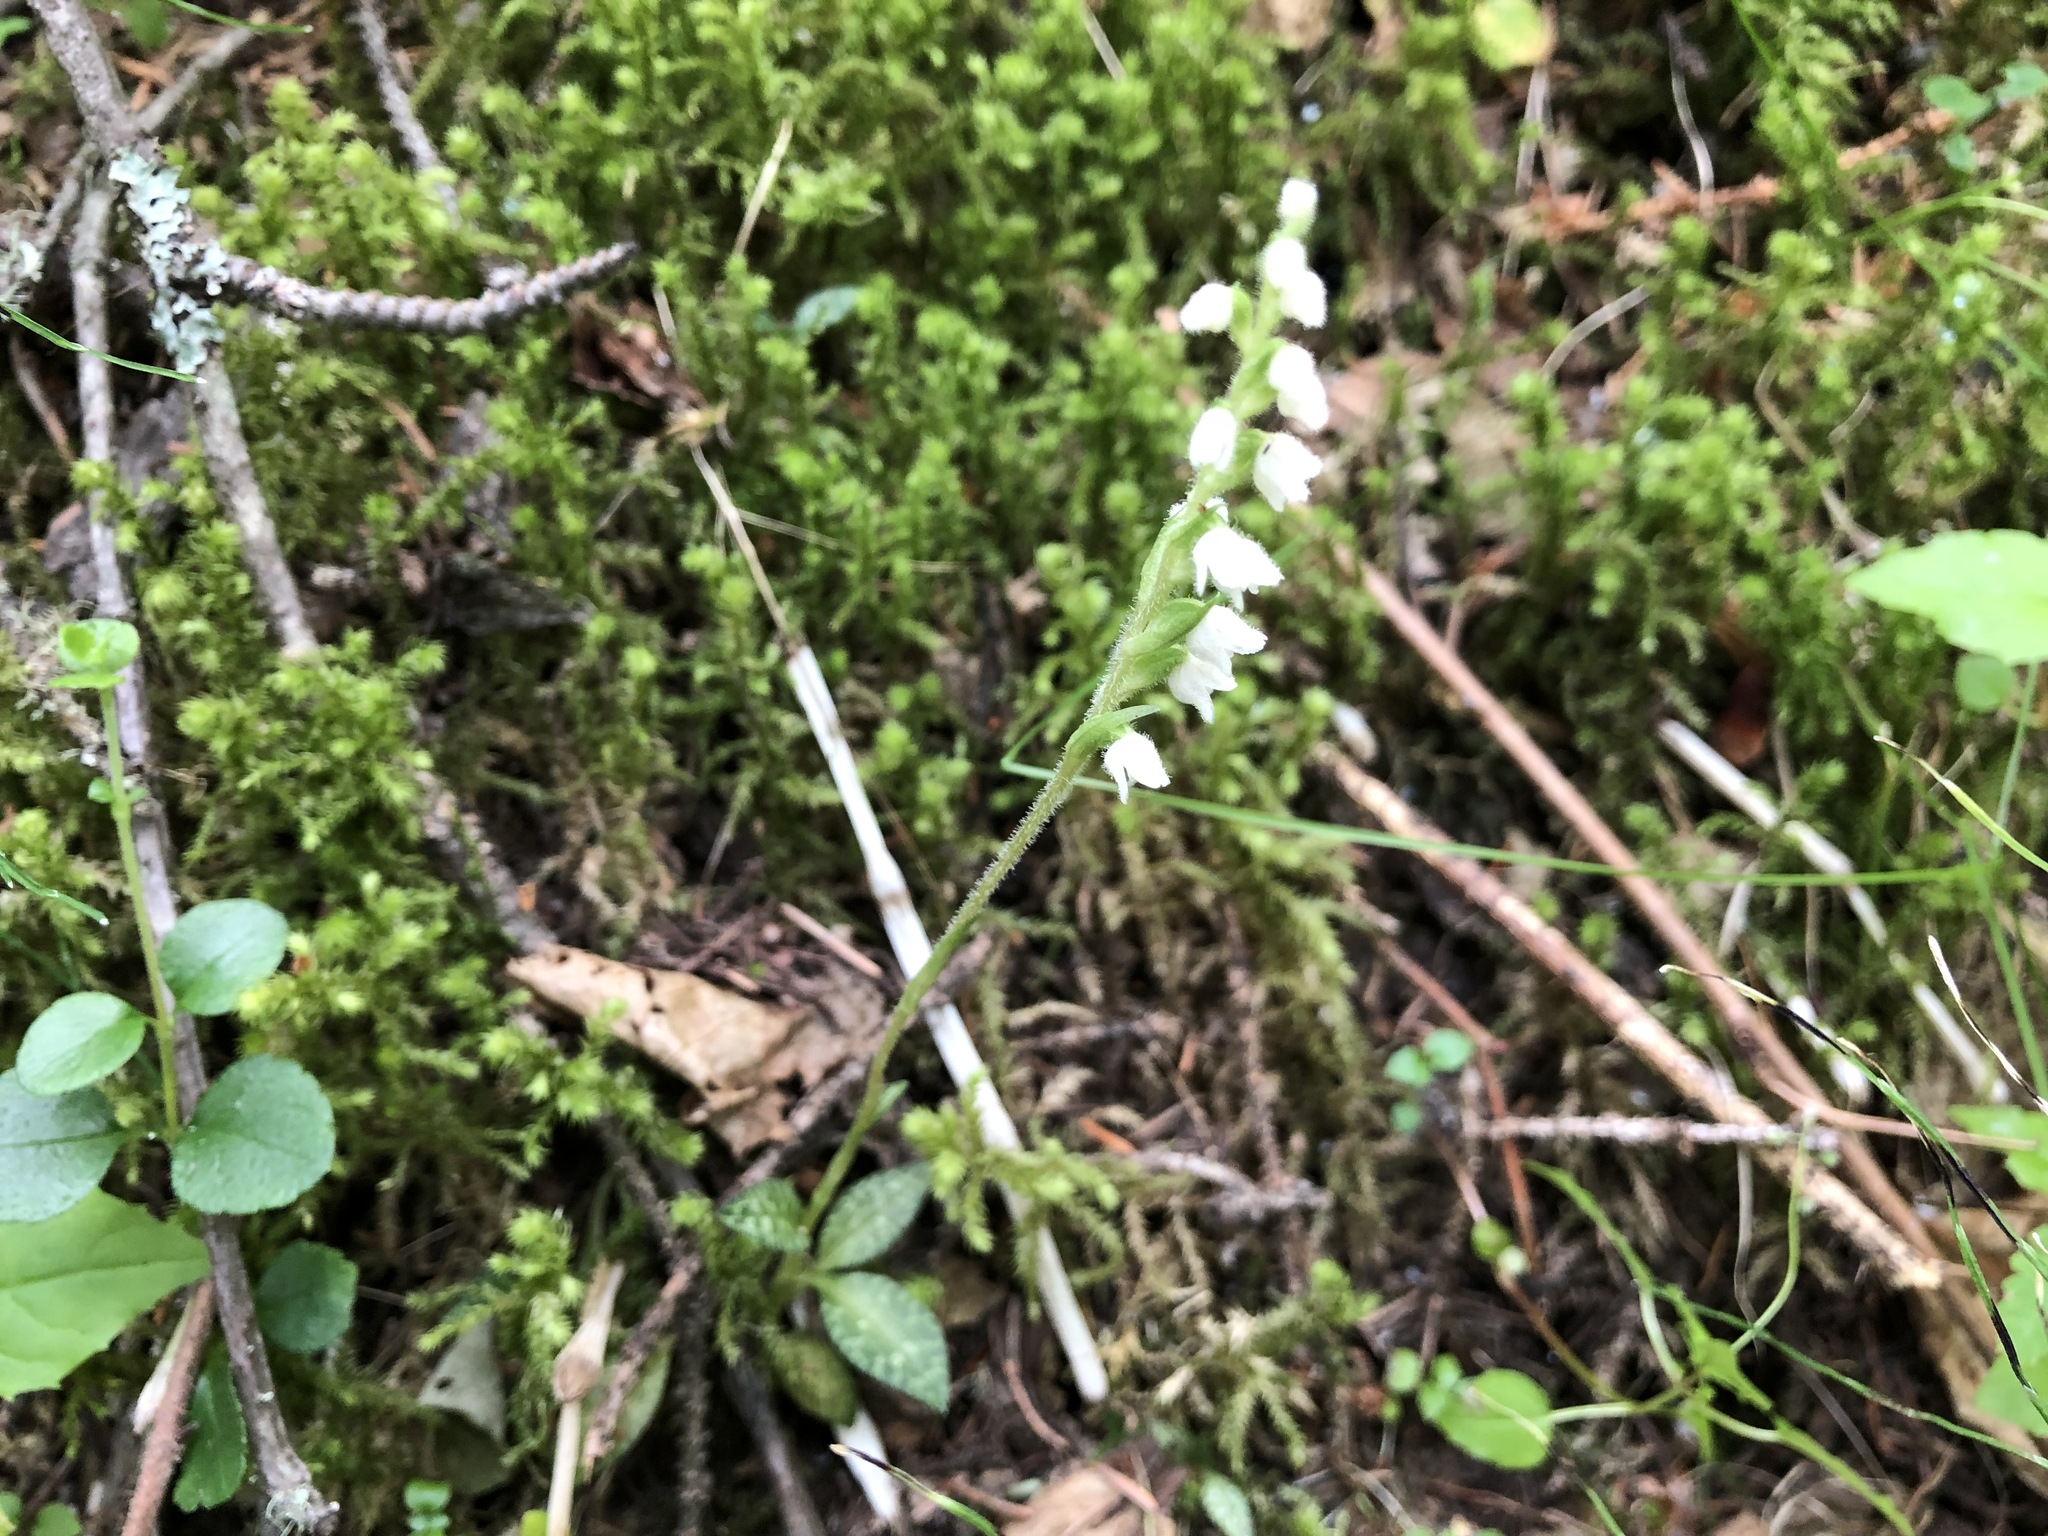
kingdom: Plantae
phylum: Tracheophyta
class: Liliopsida
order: Asparagales
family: Orchidaceae
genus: Goodyera
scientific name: Goodyera repens
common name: Creeping lady's-tresses
